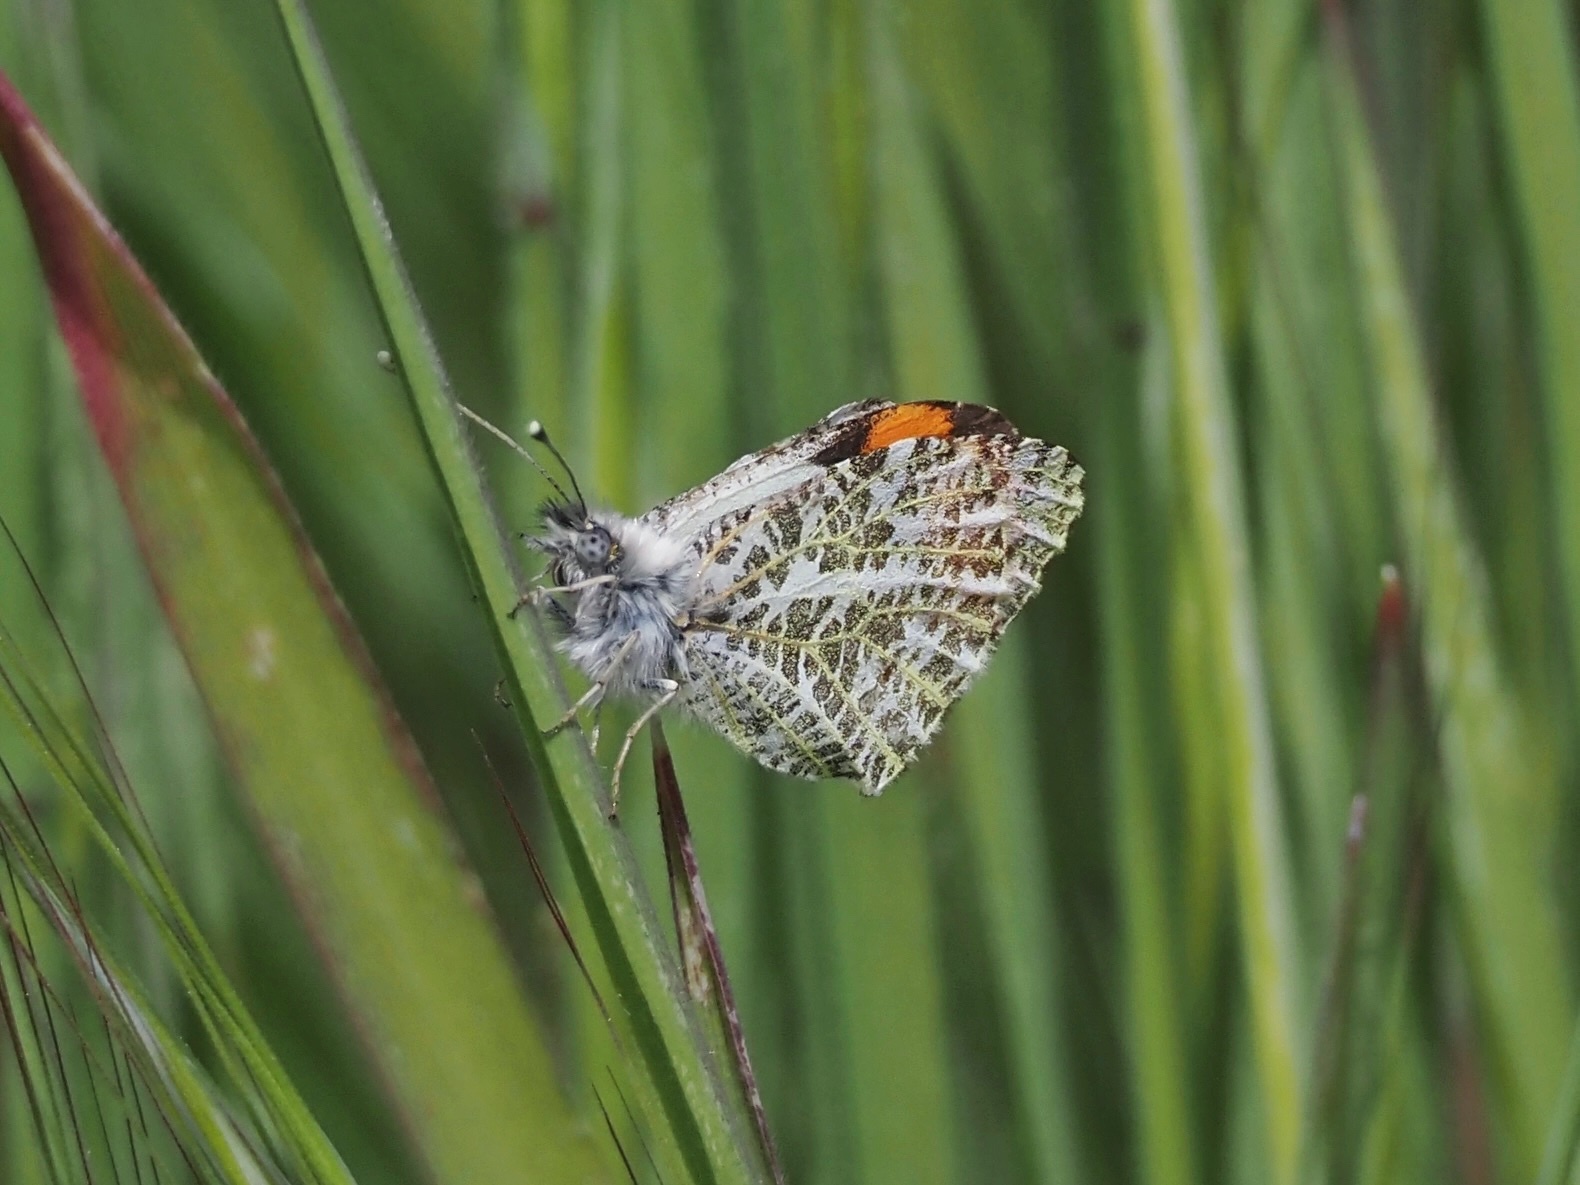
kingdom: Animalia
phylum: Arthropoda
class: Insecta
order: Lepidoptera
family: Pieridae
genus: Anthocharis
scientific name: Anthocharis sara
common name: Sara's orangetip
